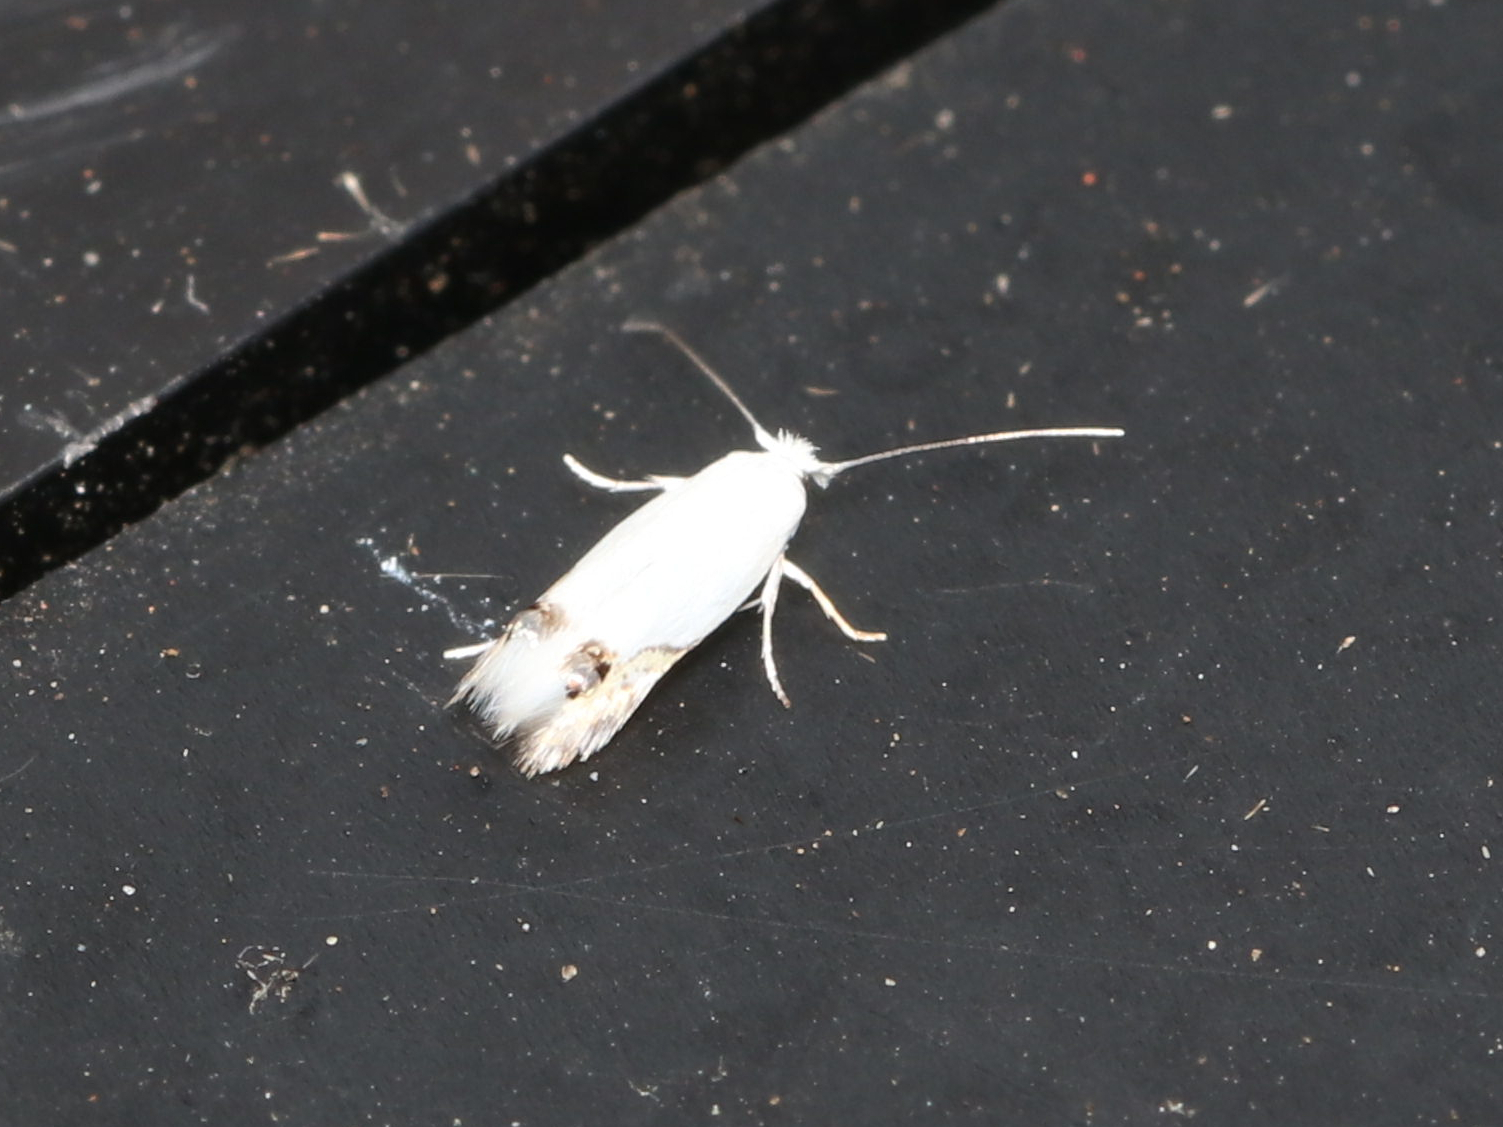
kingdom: Animalia
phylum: Arthropoda
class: Insecta
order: Lepidoptera
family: Lyonetiidae
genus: Leucoptera
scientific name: Leucoptera Paraleucoptera albella
